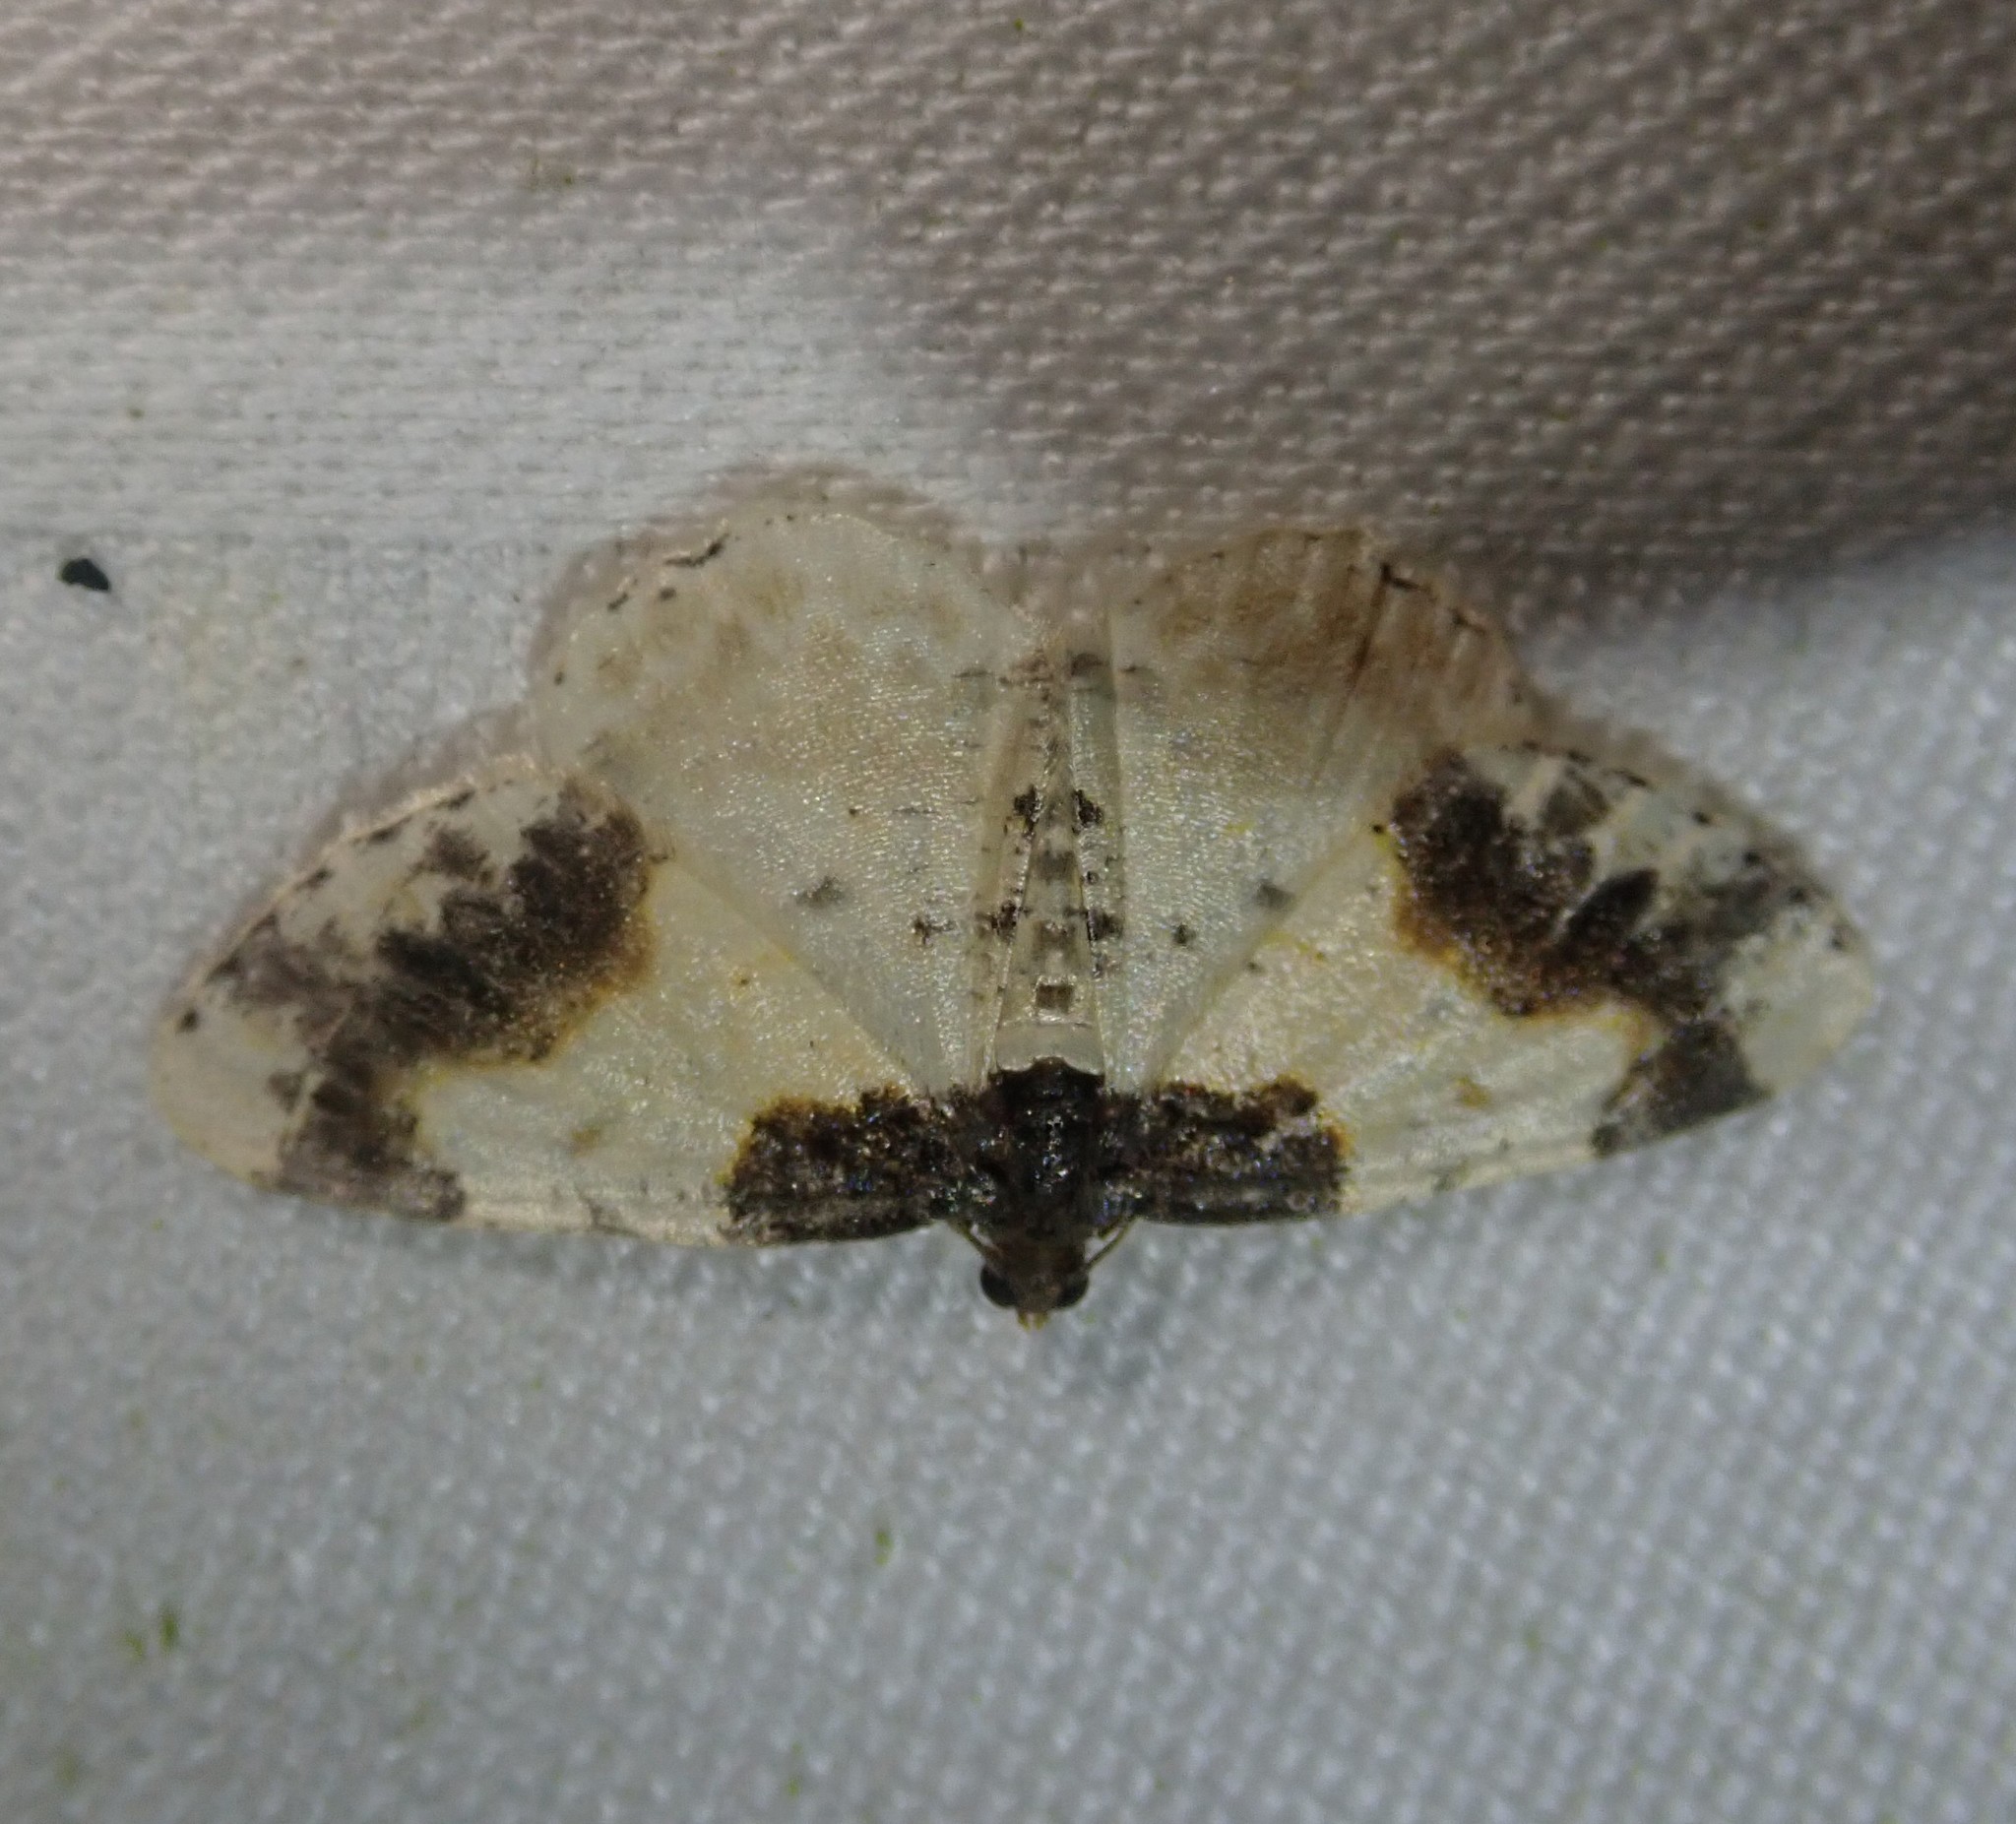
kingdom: Animalia
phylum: Arthropoda
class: Insecta
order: Lepidoptera
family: Geometridae
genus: Ligdia
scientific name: Ligdia adustata
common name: Scorched carpet
